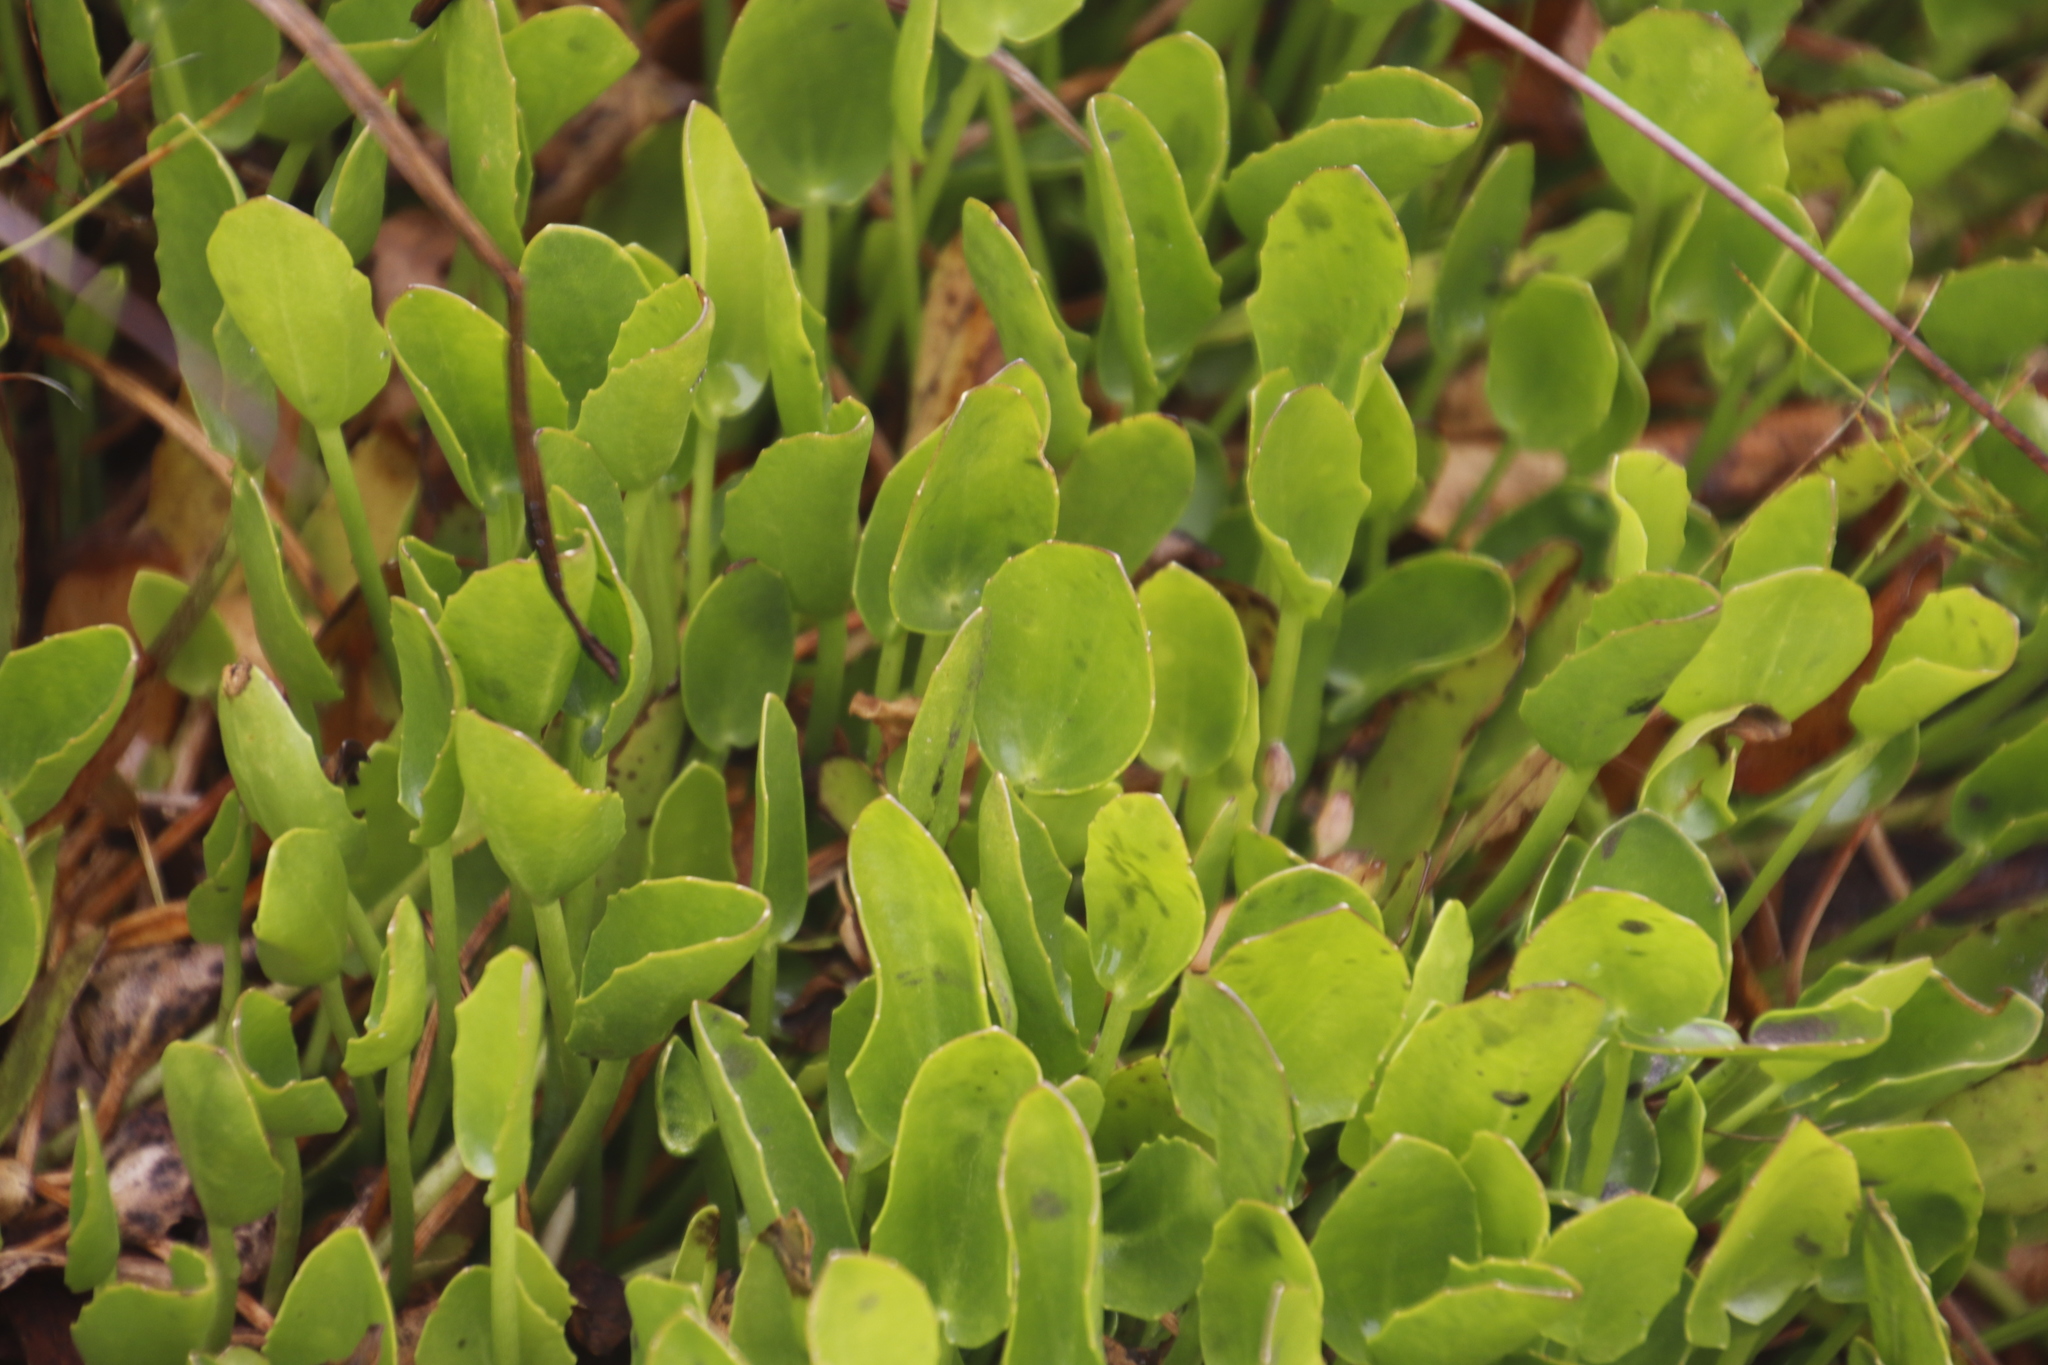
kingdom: Plantae
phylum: Tracheophyta
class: Magnoliopsida
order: Asterales
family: Menyanthaceae
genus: Villarsia
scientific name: Villarsia manningiana
